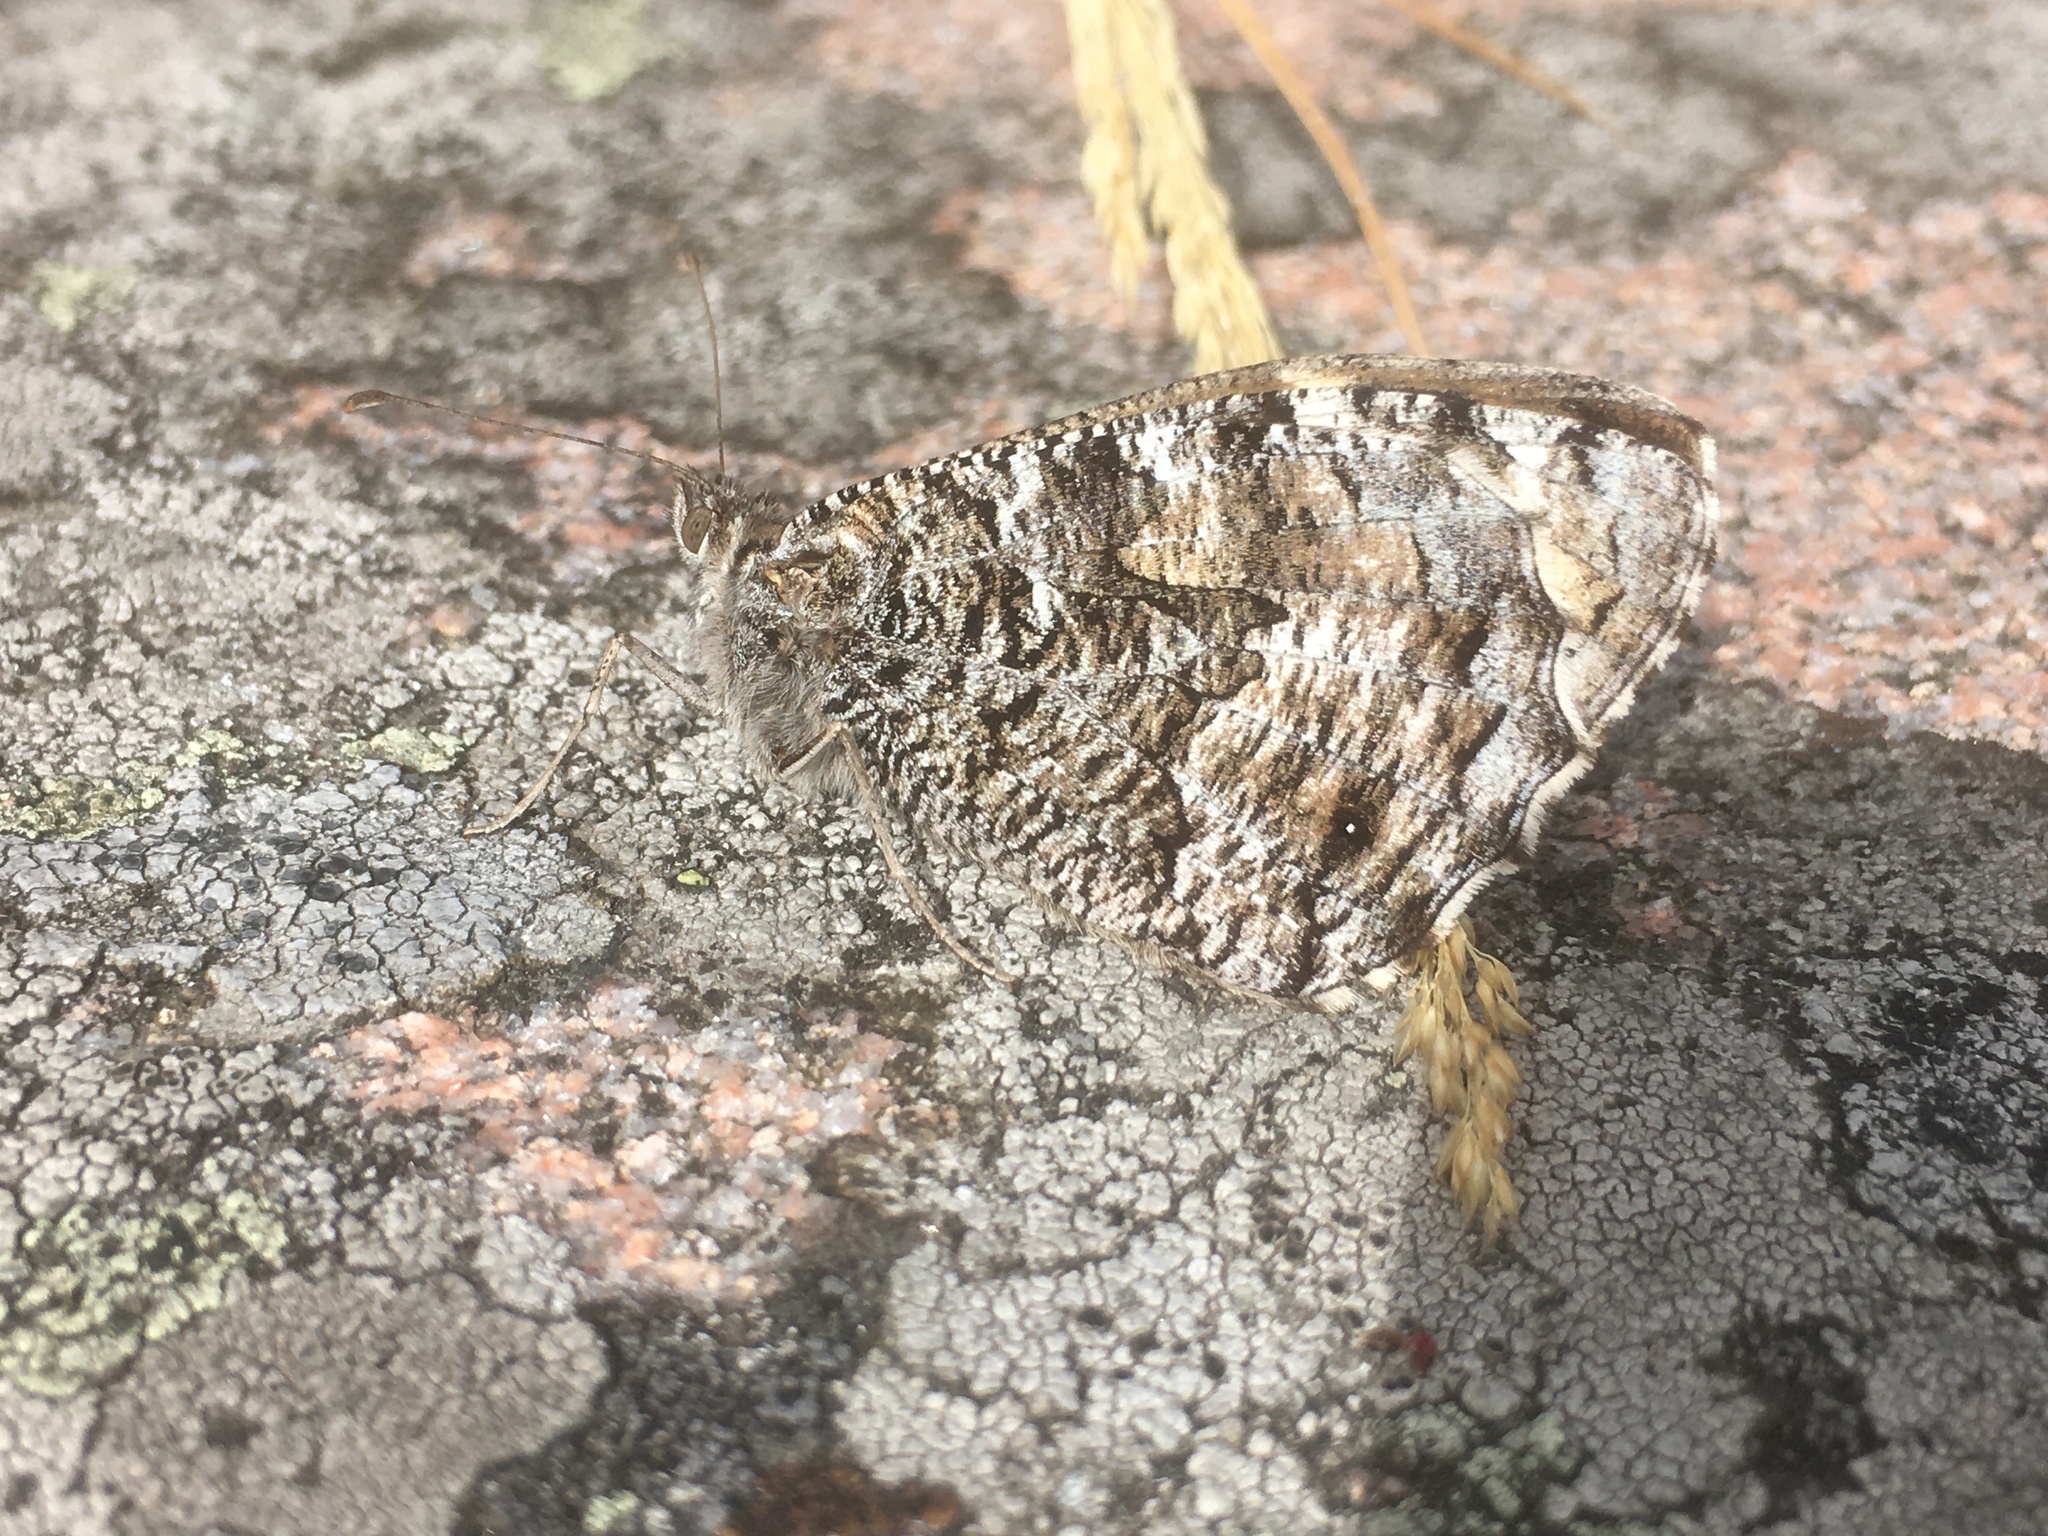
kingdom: Animalia
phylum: Arthropoda
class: Insecta
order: Lepidoptera
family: Nymphalidae
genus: Hipparchia
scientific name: Hipparchia semele
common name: Grayling
